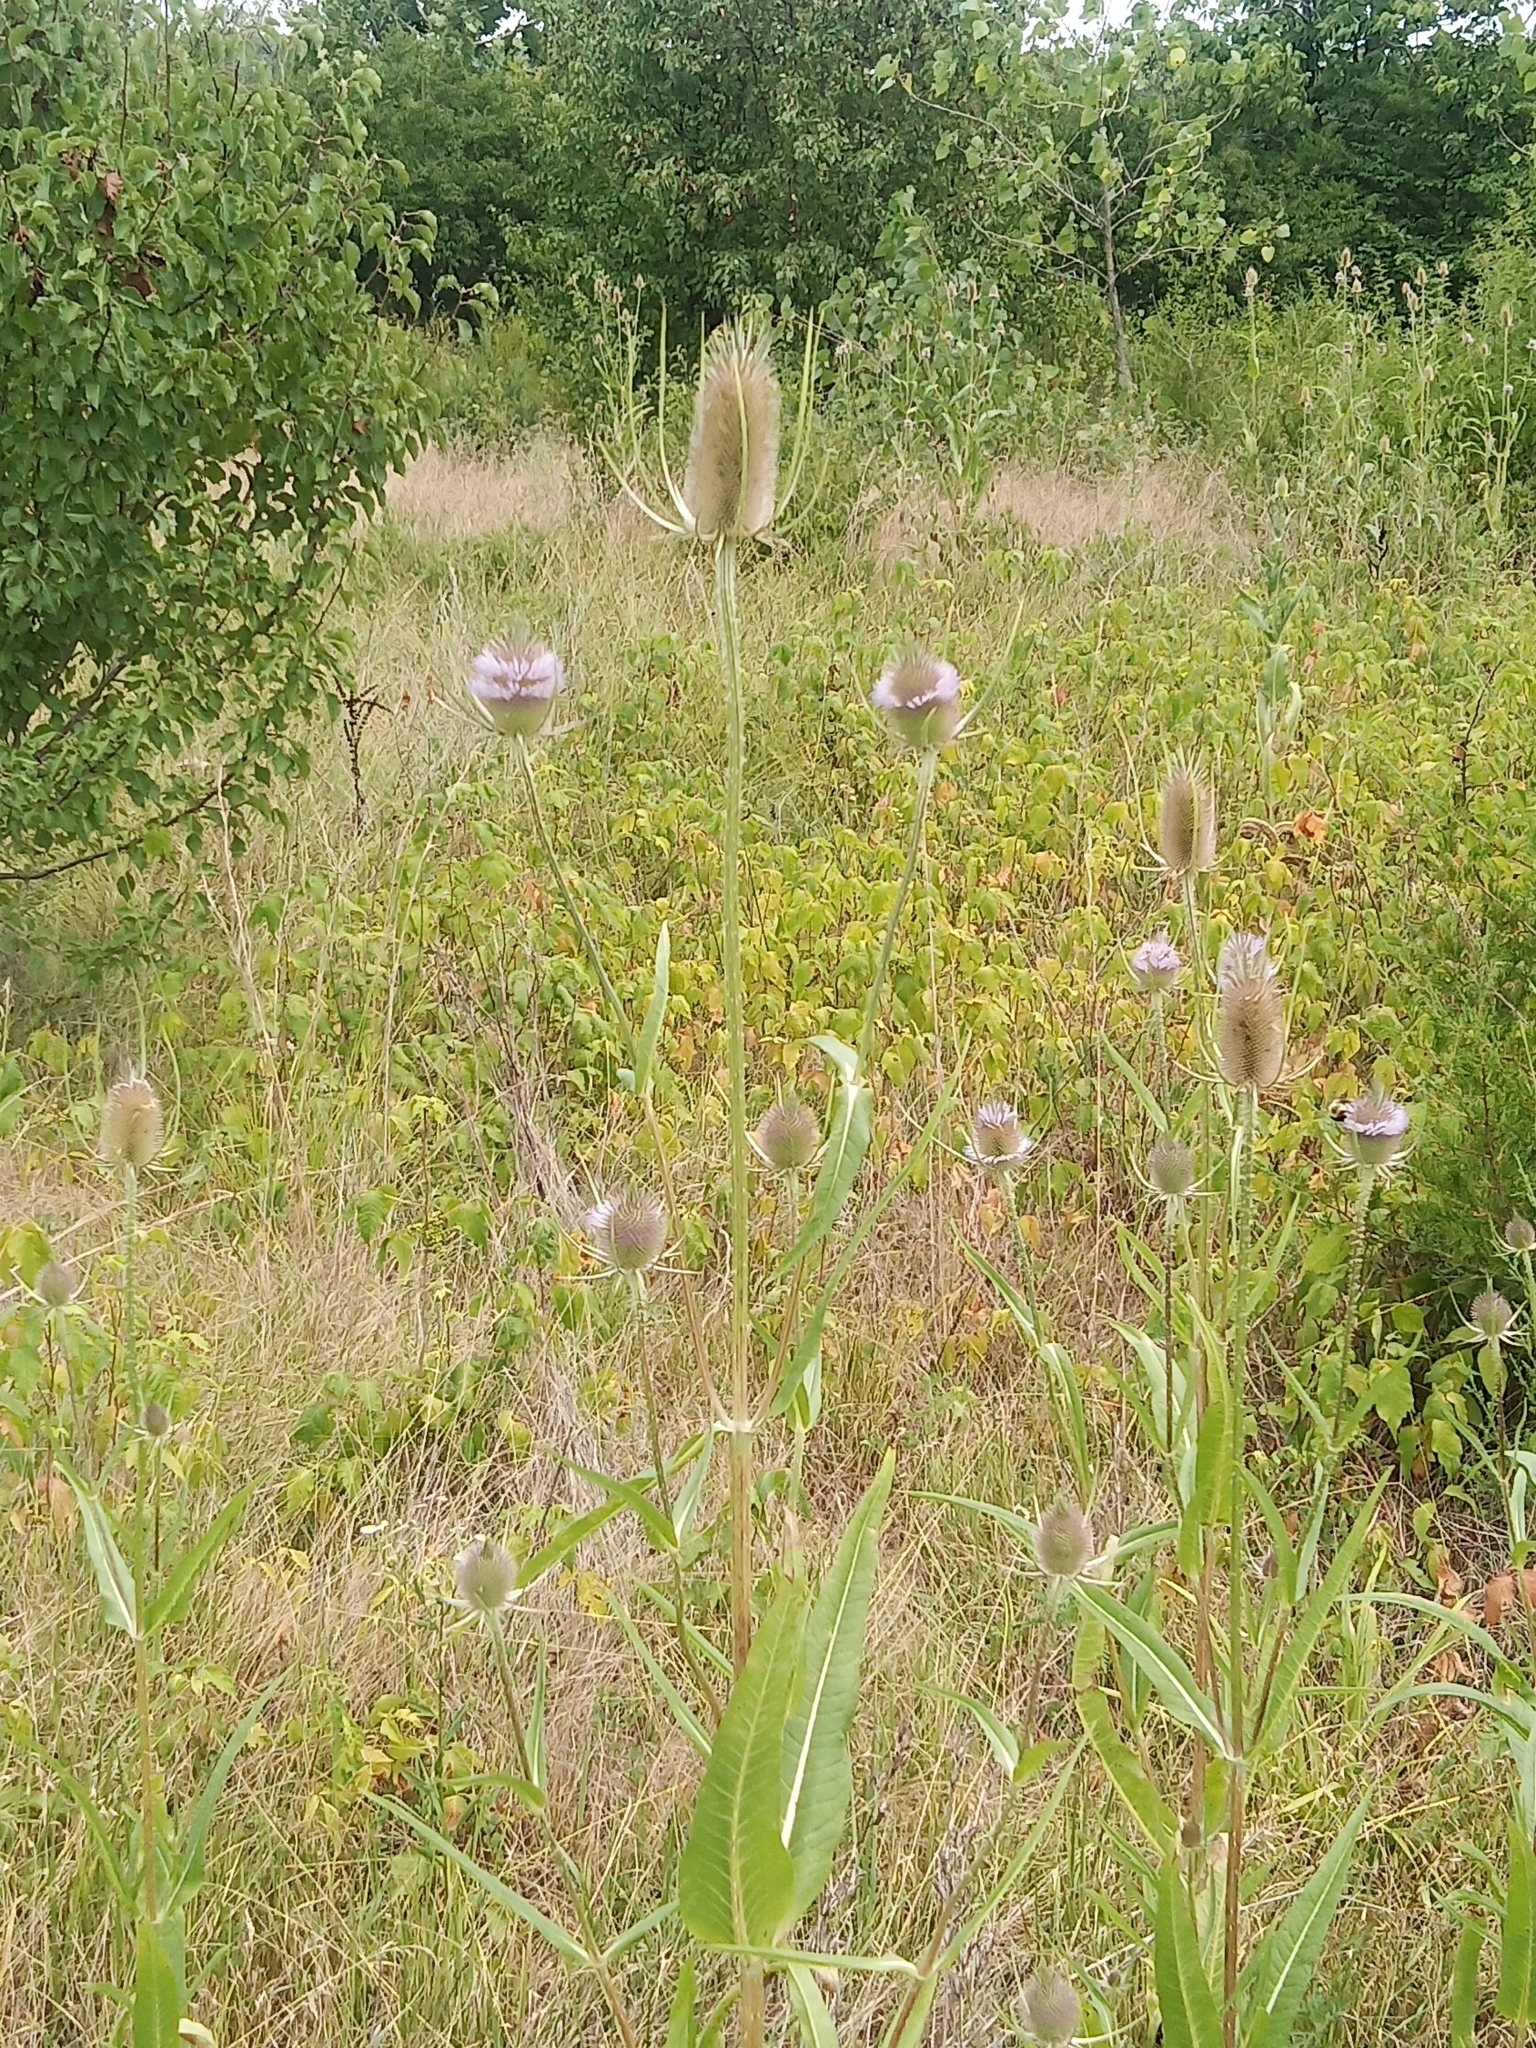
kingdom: Plantae
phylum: Tracheophyta
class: Magnoliopsida
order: Dipsacales
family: Caprifoliaceae
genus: Dipsacus
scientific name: Dipsacus fullonum
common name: Teasel
